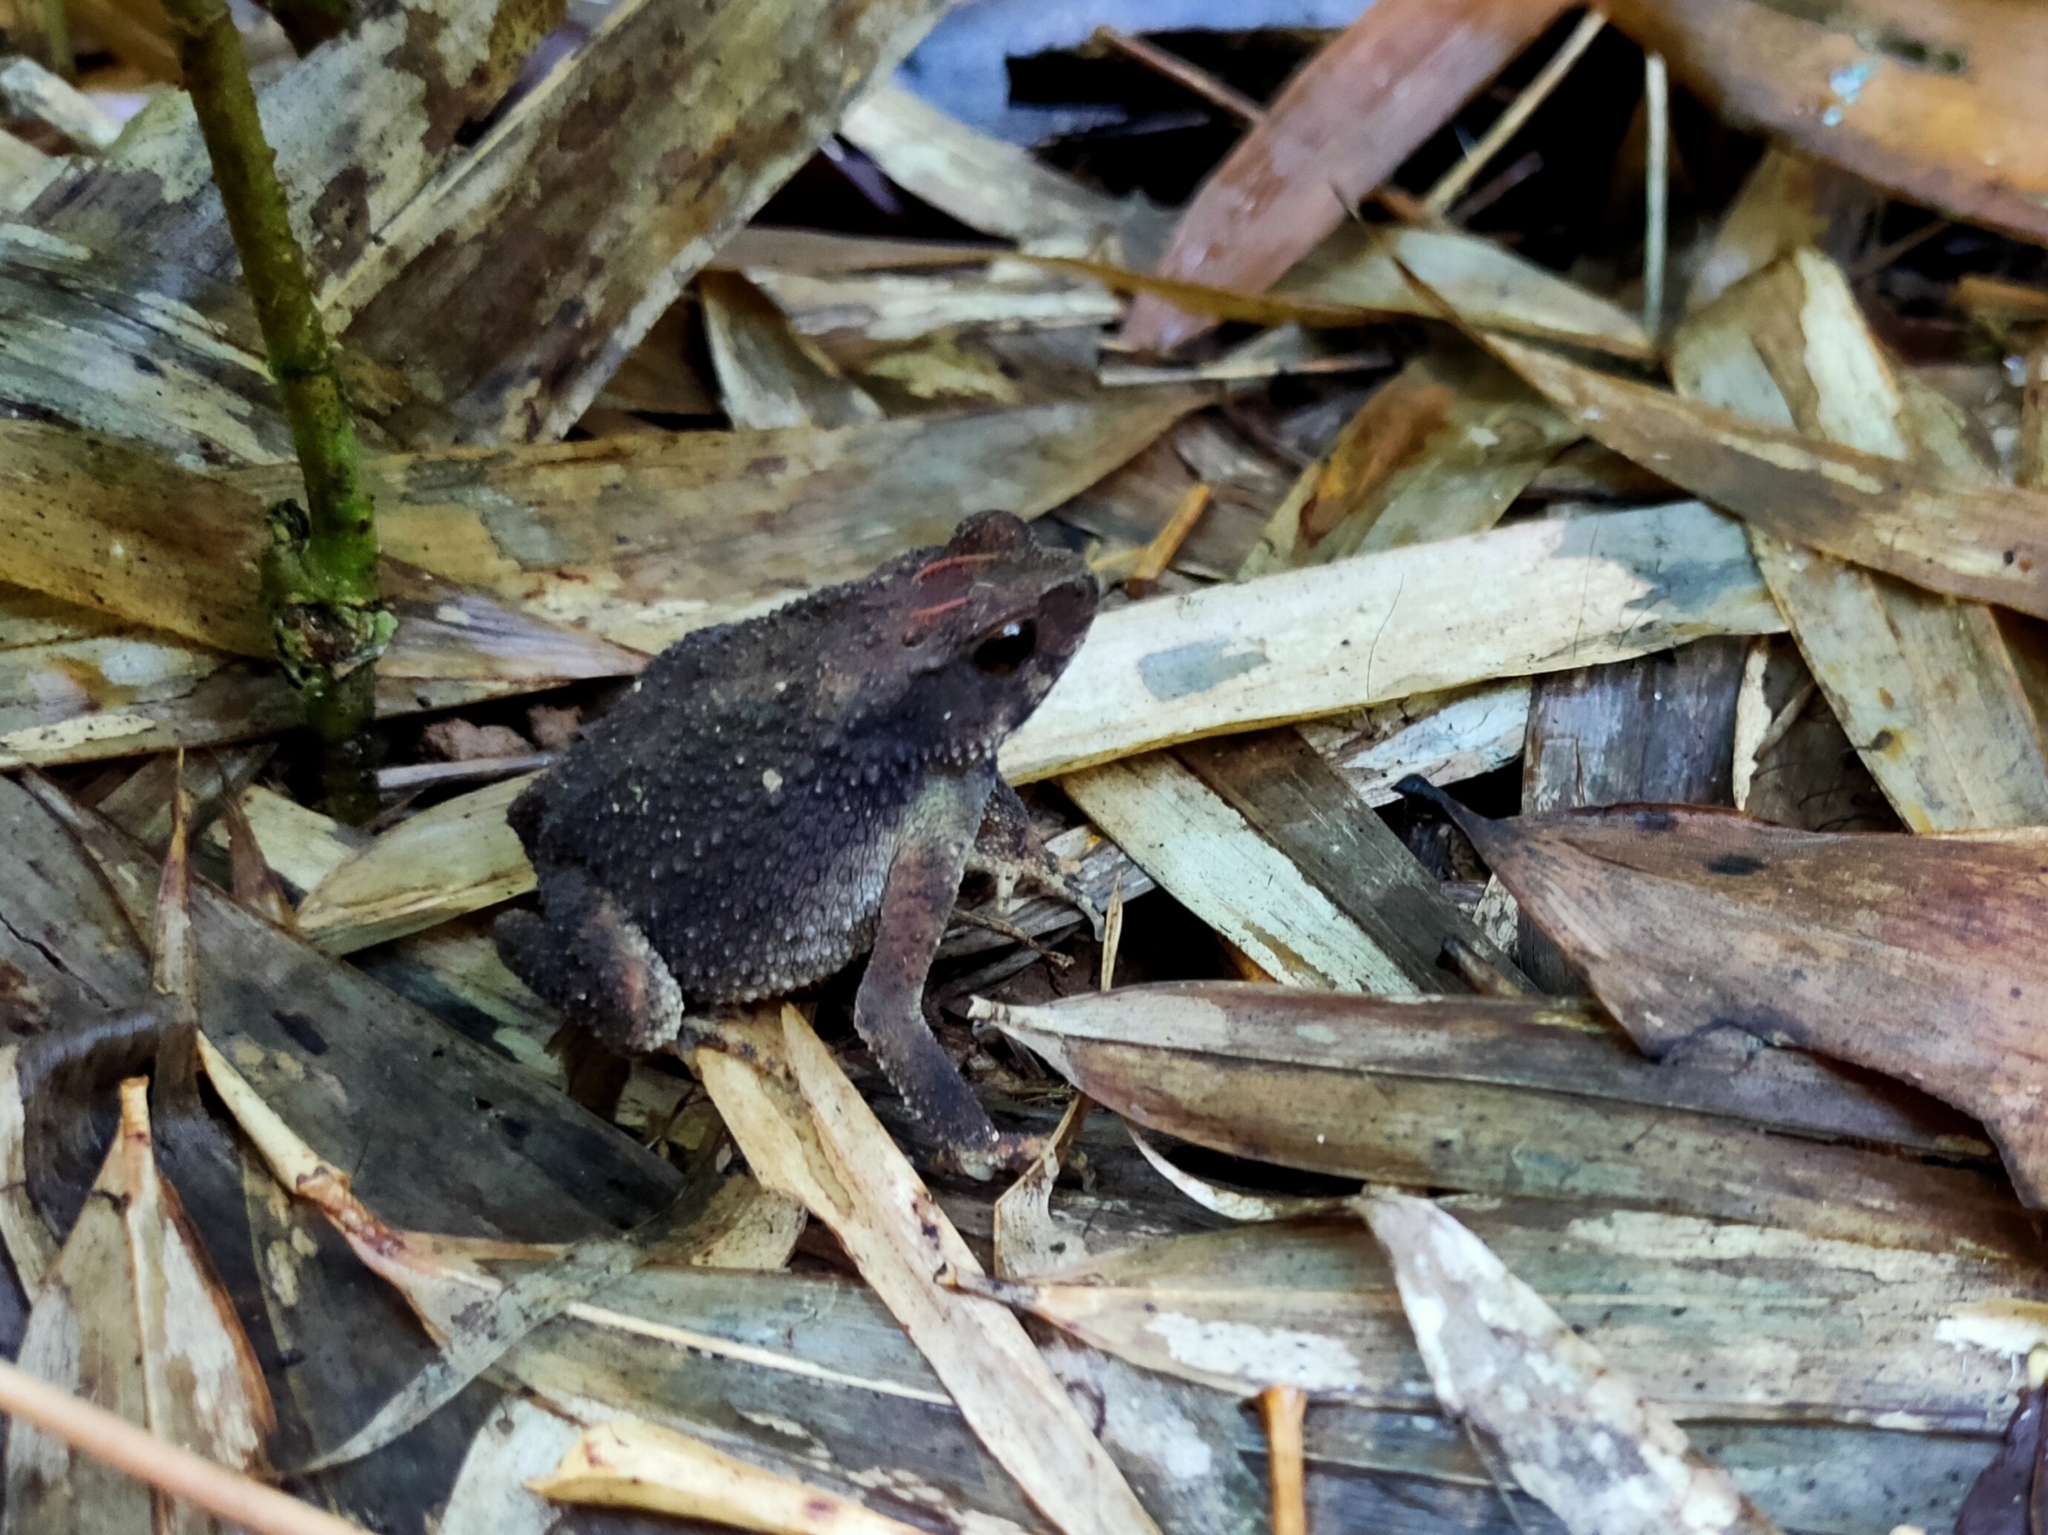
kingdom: Animalia
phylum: Chordata
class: Amphibia
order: Anura
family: Bufonidae
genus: Ingerophrynus
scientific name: Ingerophrynus parvus
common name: Dwarf lesser stream toad
